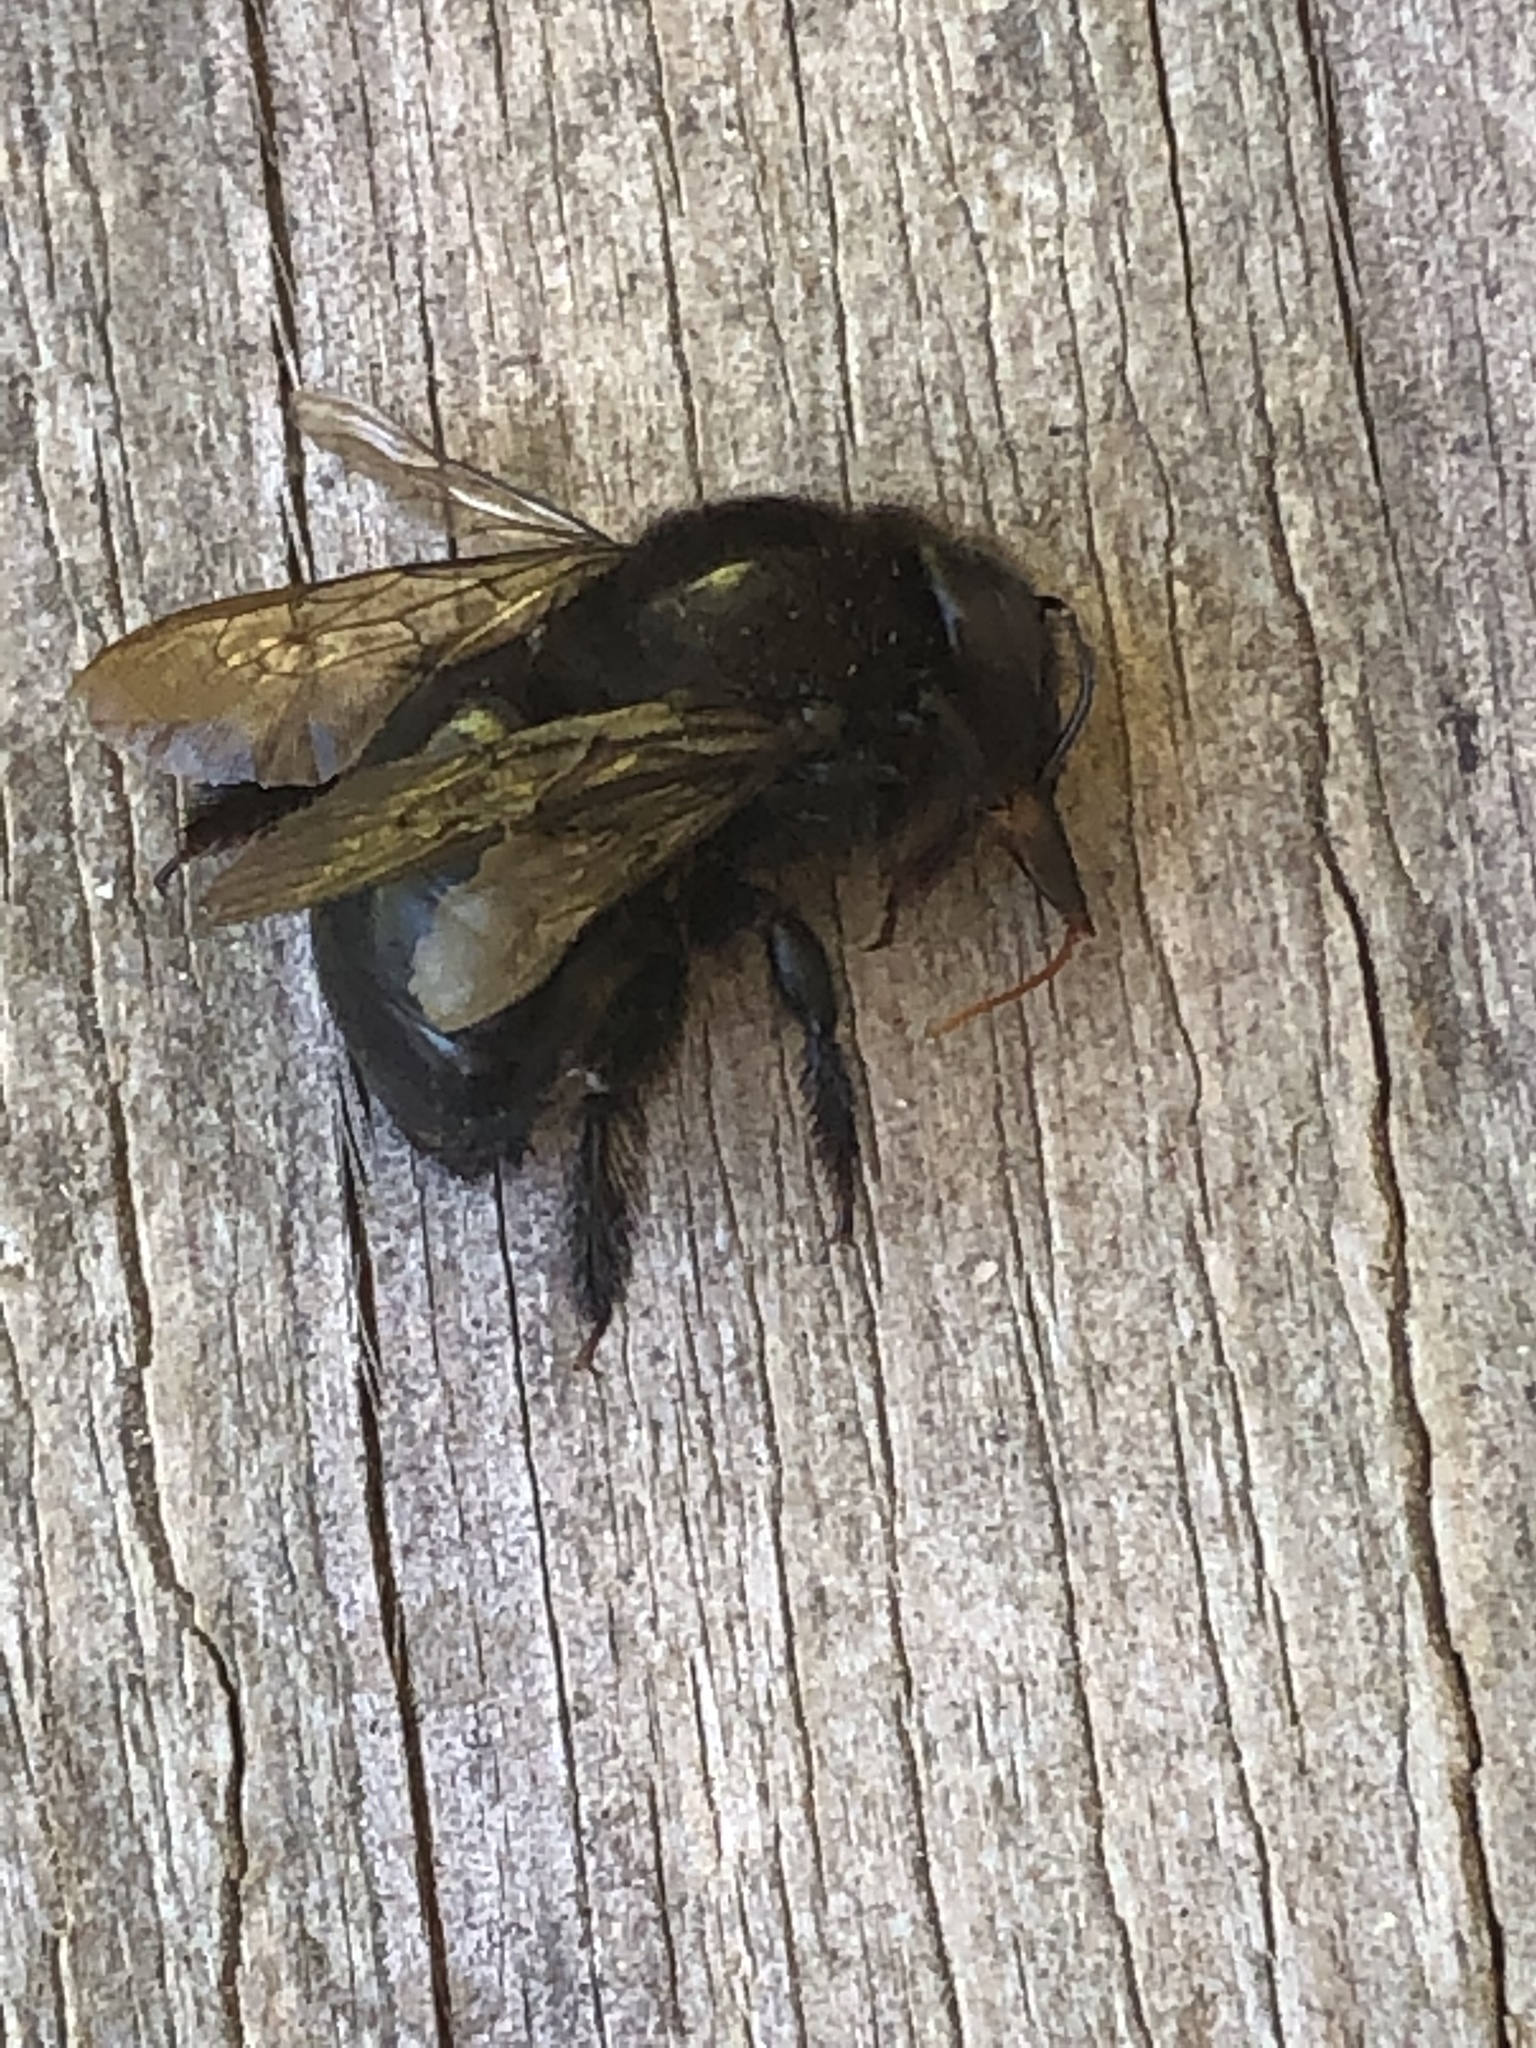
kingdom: Animalia
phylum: Arthropoda
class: Insecta
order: Hymenoptera
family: Apidae
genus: Xylocopa
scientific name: Xylocopa tabaniformis
